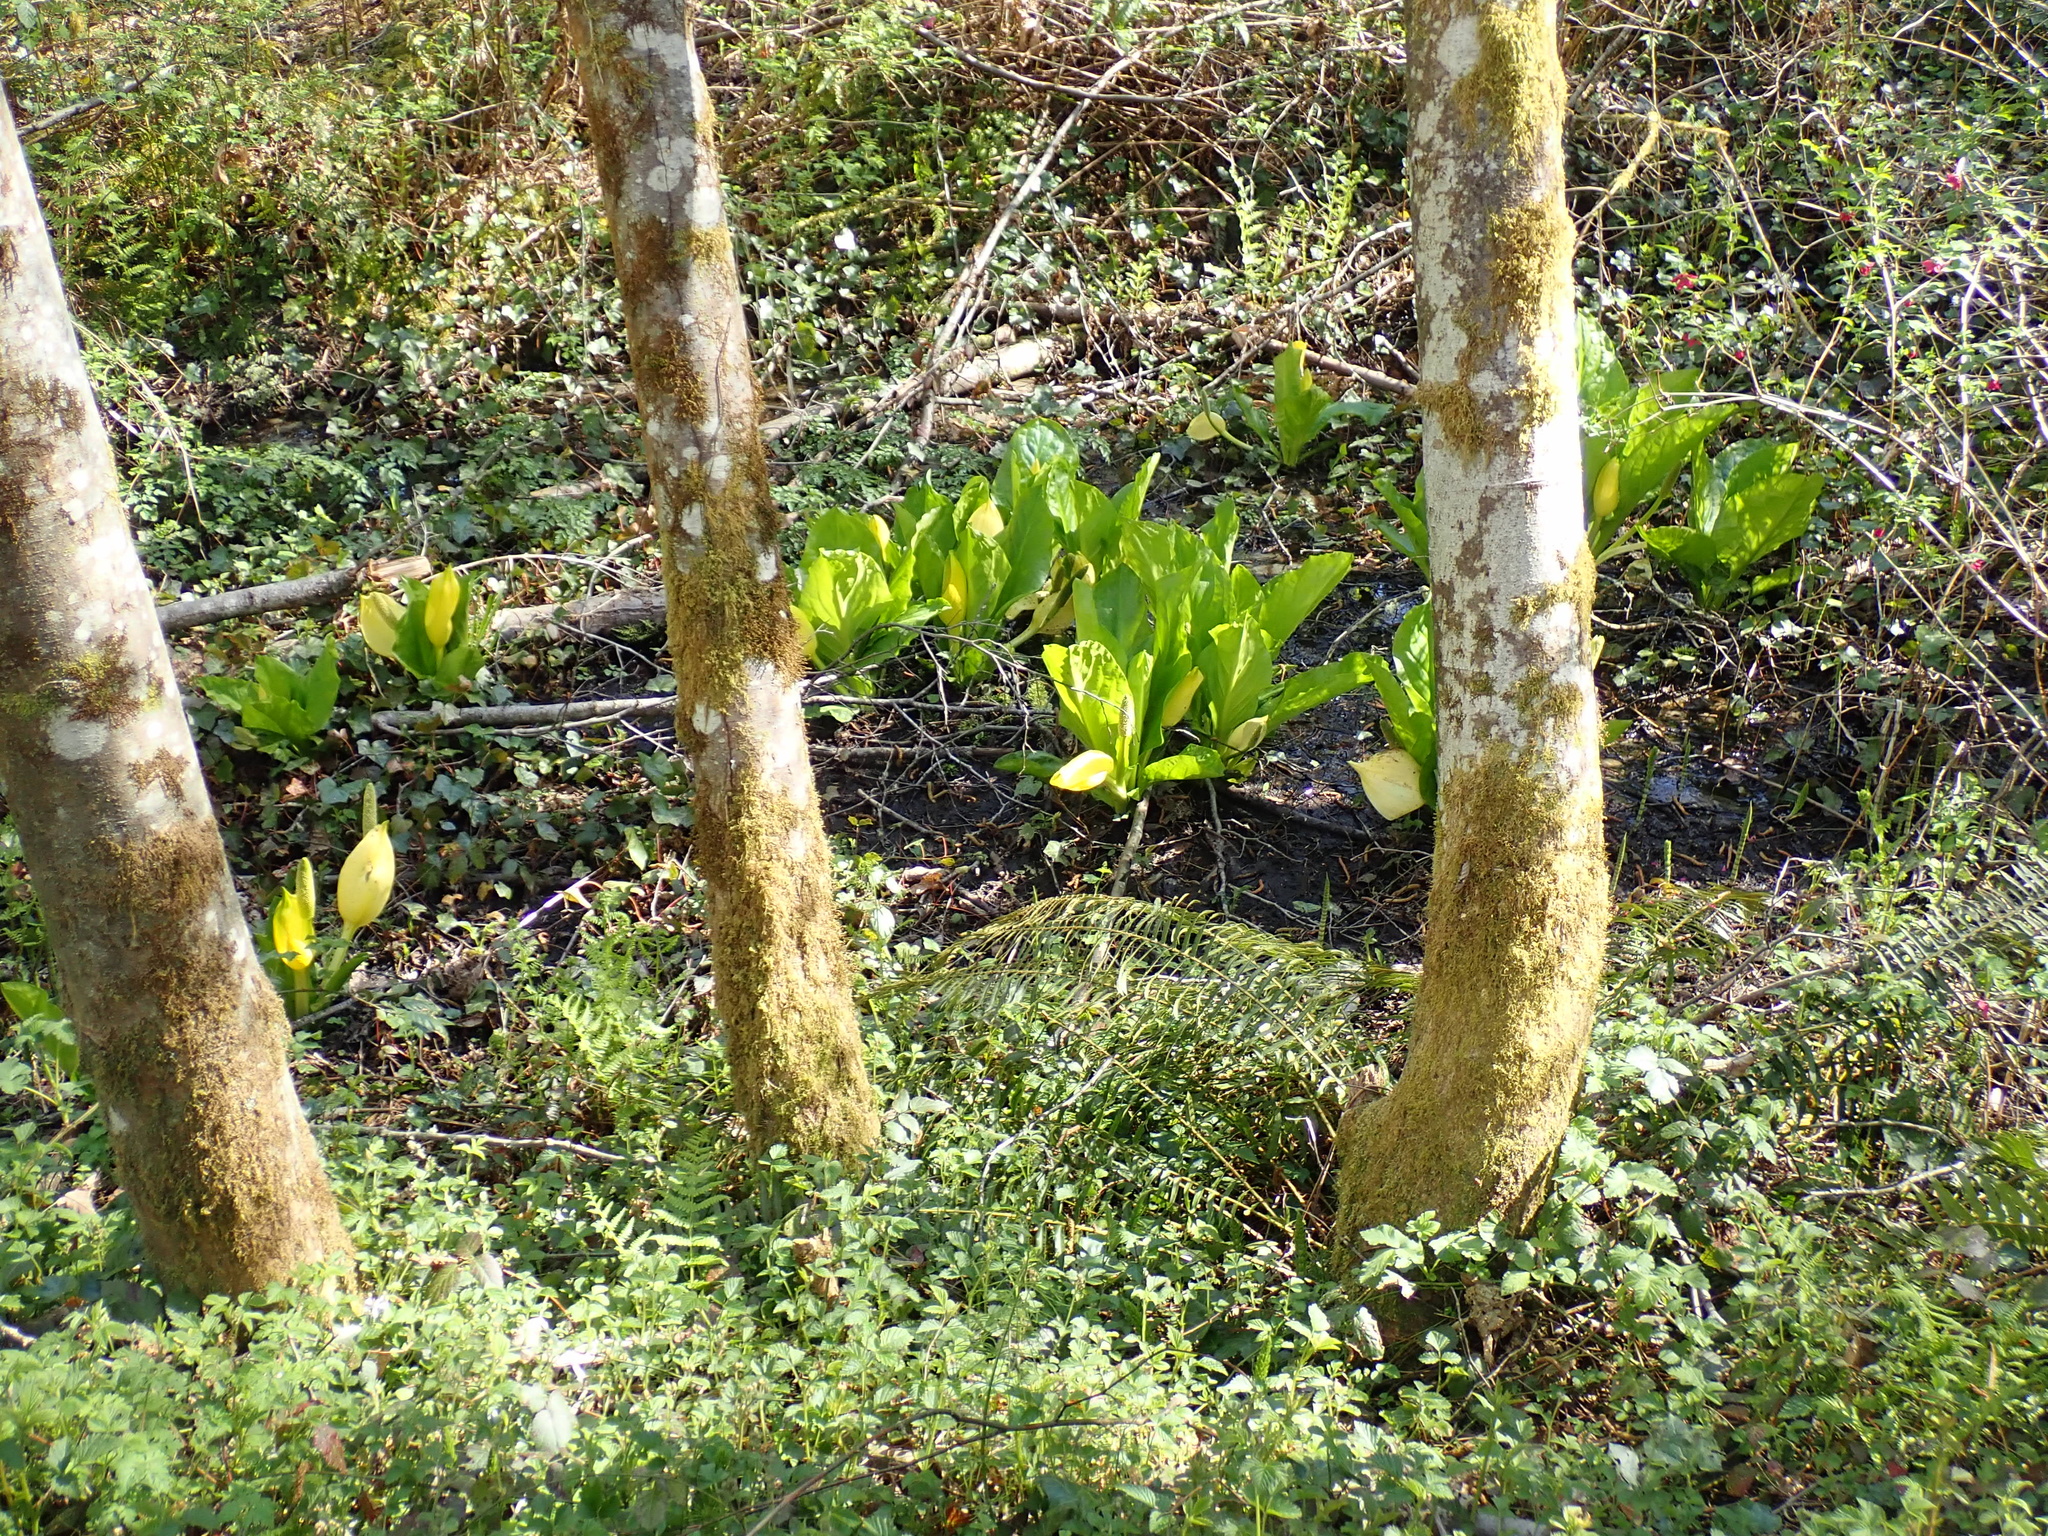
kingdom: Plantae
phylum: Tracheophyta
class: Liliopsida
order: Alismatales
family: Araceae
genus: Lysichiton
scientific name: Lysichiton americanus
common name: American skunk cabbage
